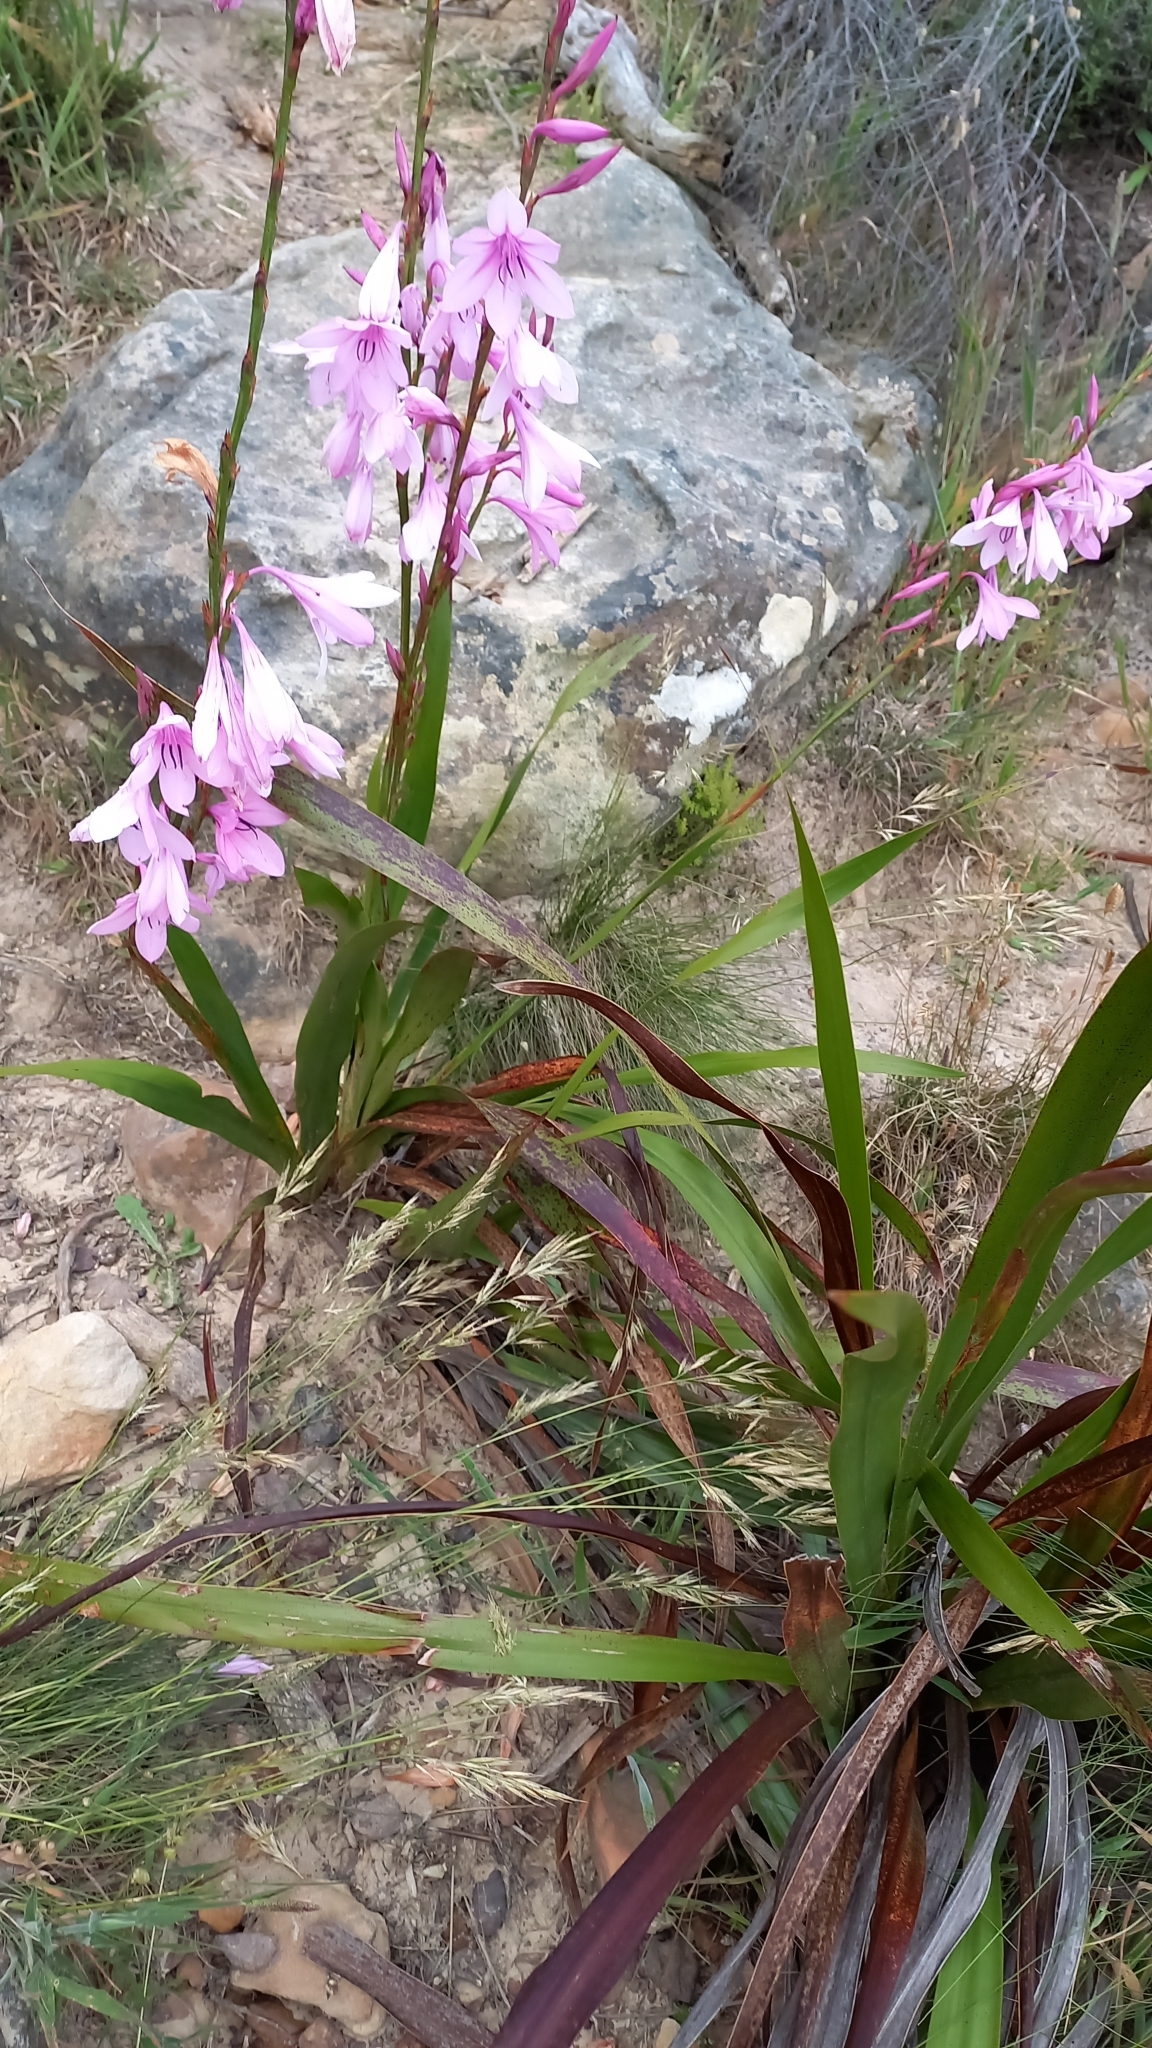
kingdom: Plantae
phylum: Tracheophyta
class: Liliopsida
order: Asparagales
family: Iridaceae
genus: Watsonia
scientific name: Watsonia borbonica
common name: Bugle-lily
